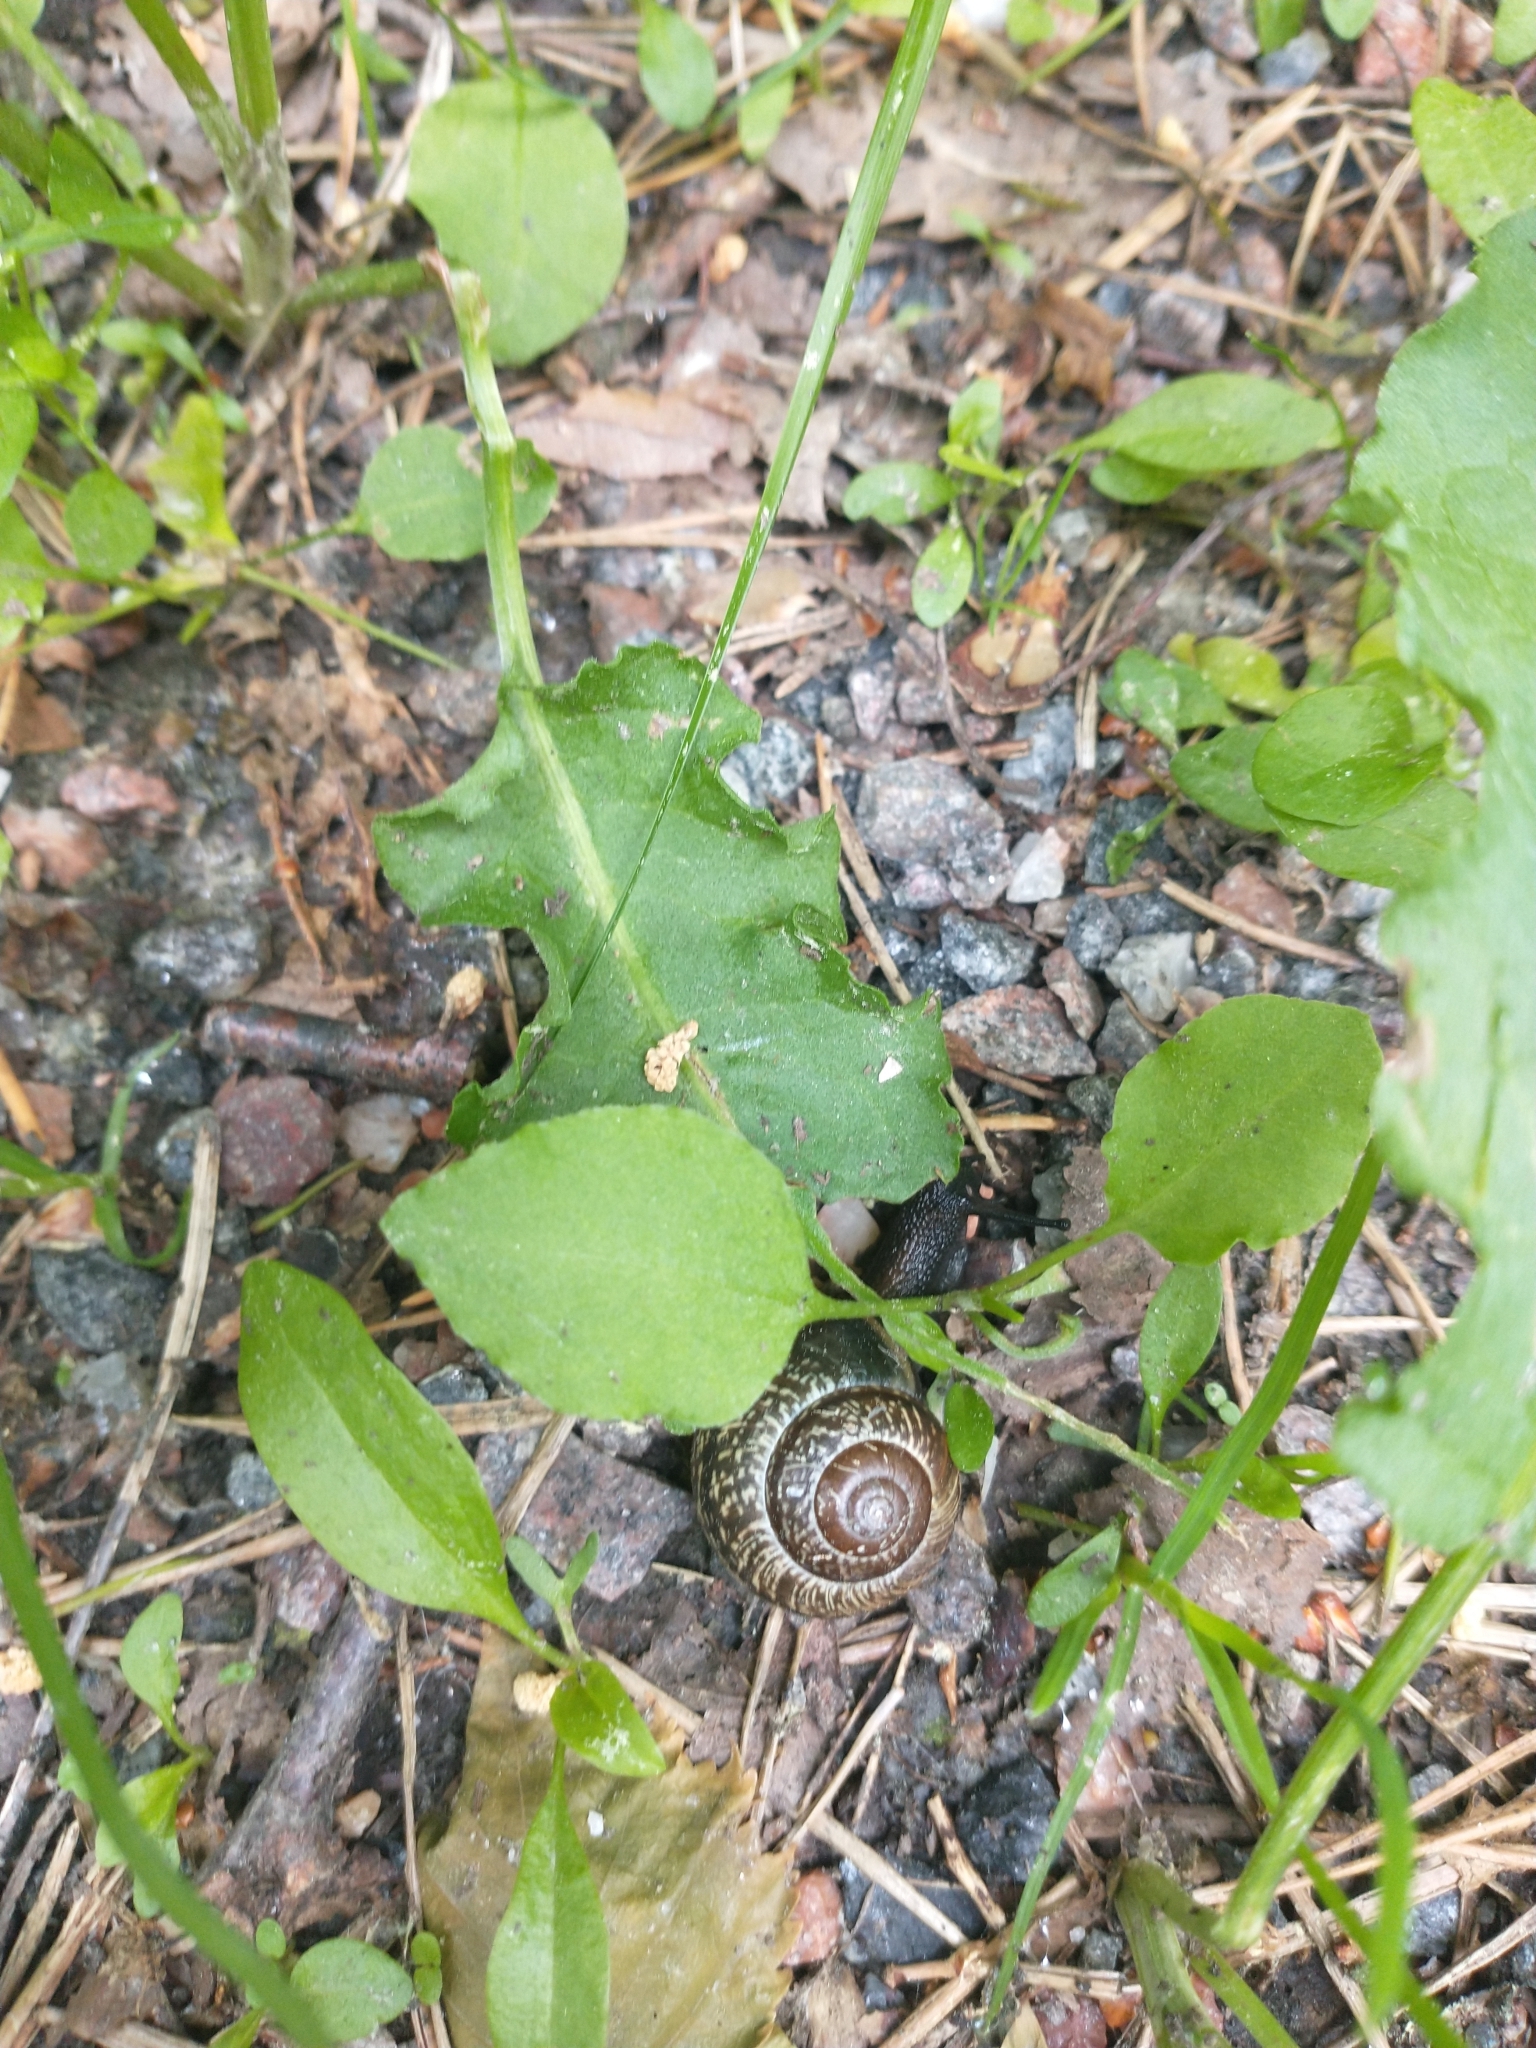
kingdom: Animalia
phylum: Mollusca
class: Gastropoda
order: Stylommatophora
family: Helicidae
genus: Arianta
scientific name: Arianta arbustorum
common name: Copse snail
